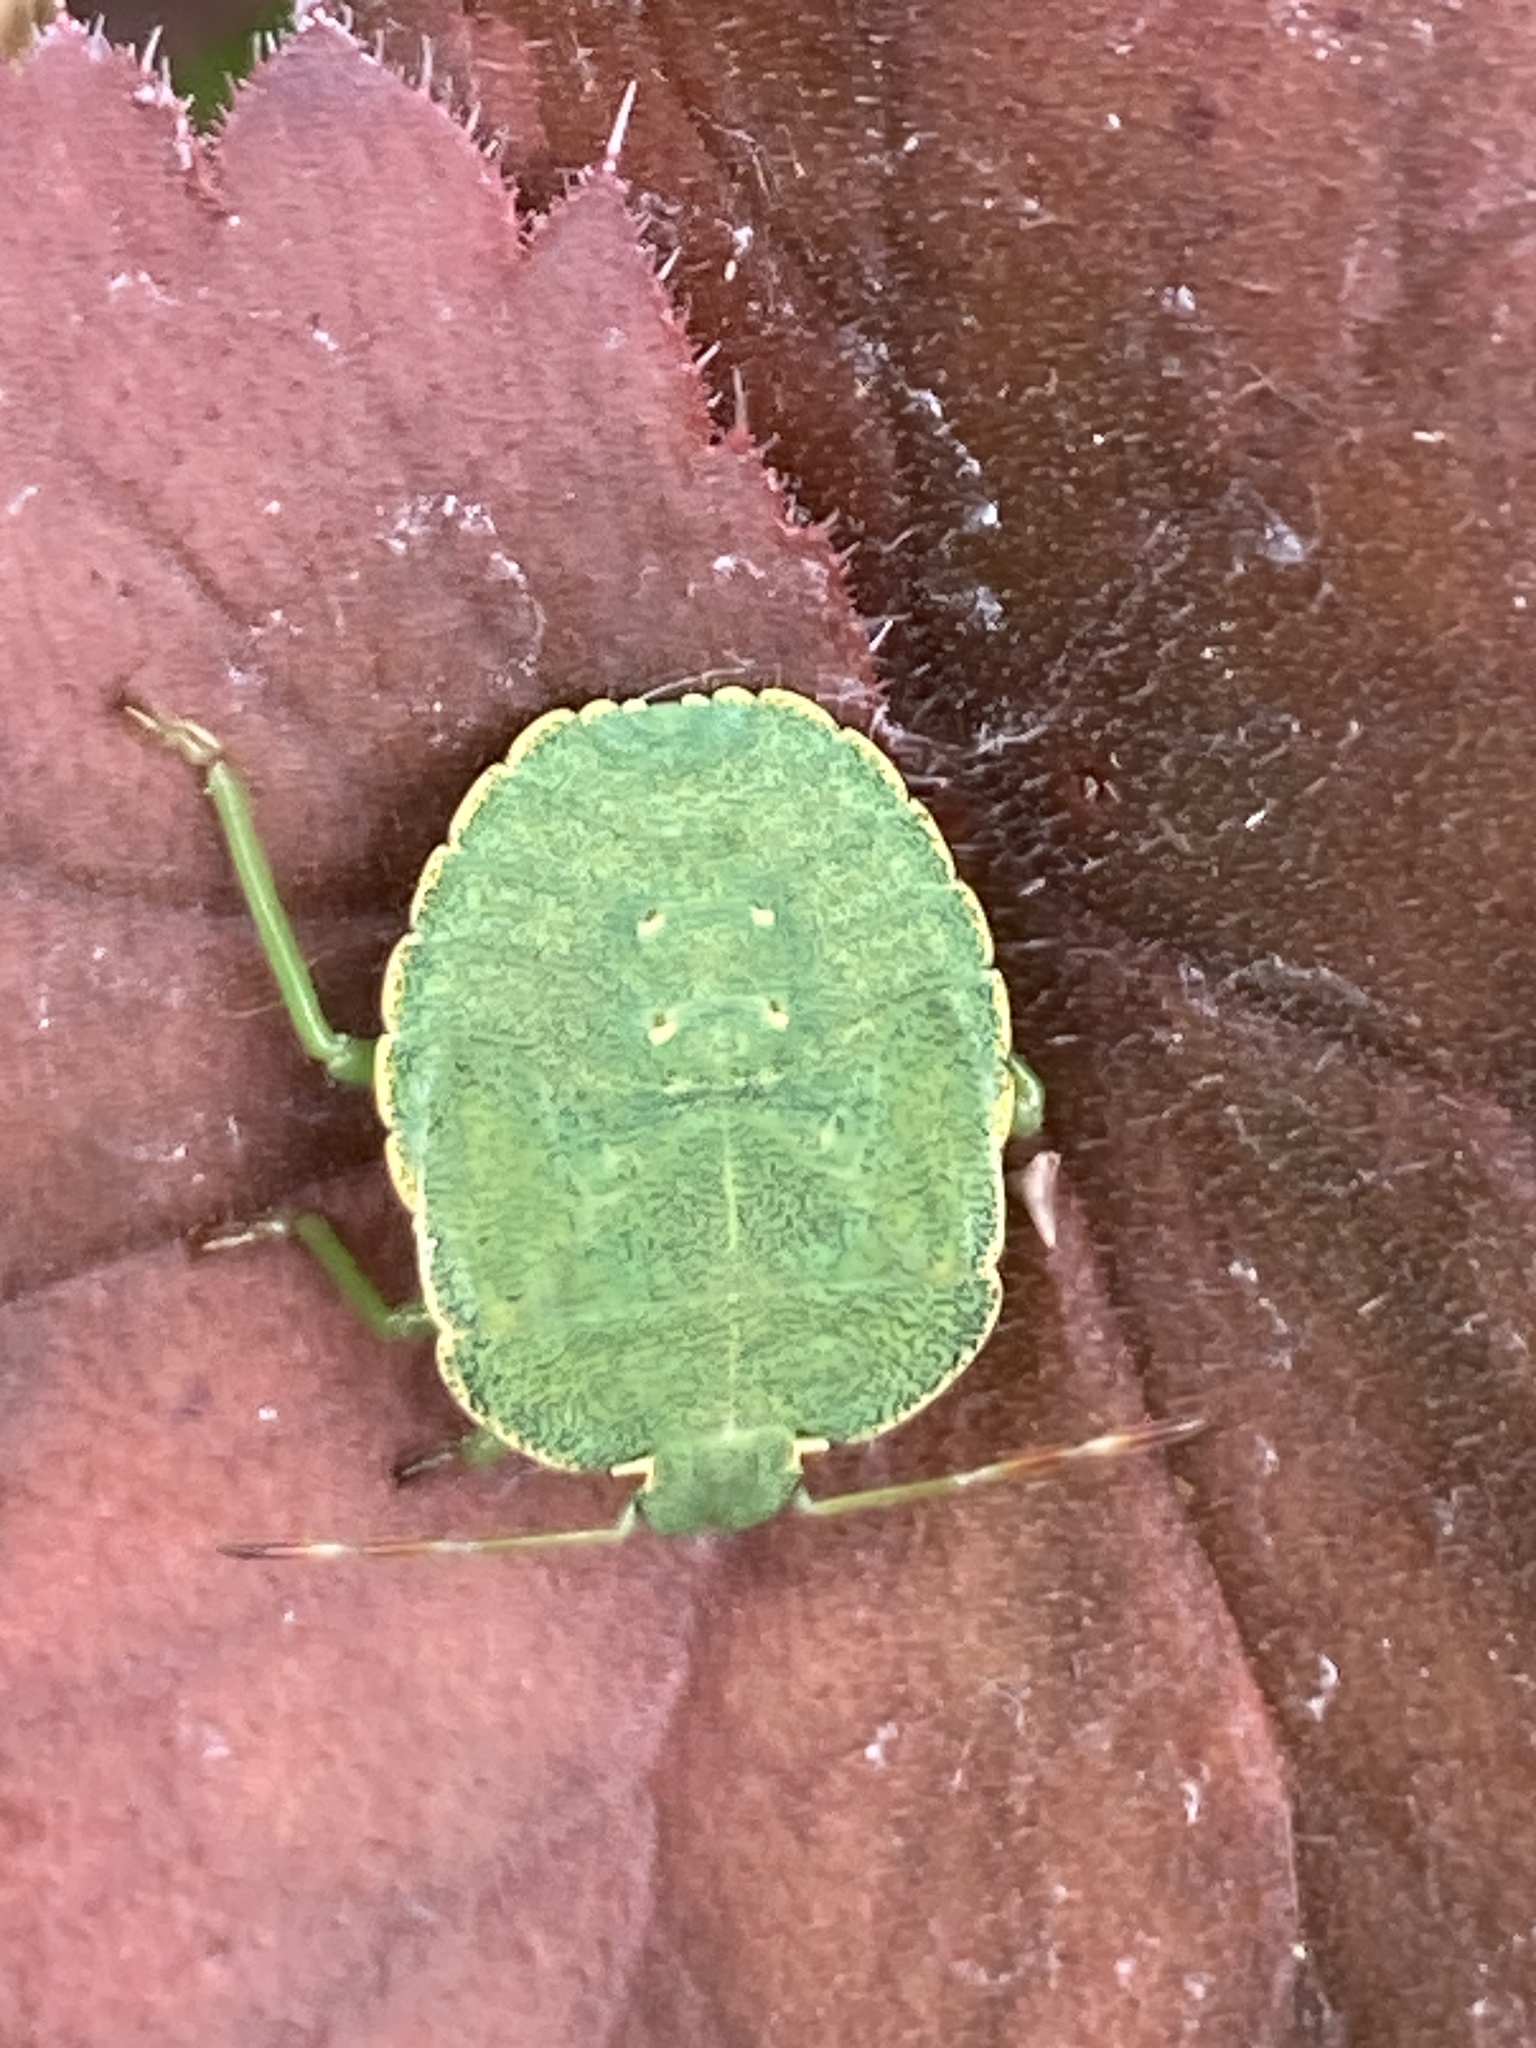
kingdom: Animalia
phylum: Arthropoda
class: Insecta
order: Hemiptera
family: Pentatomidae
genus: Palomena
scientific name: Palomena prasina
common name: Green shieldbug
